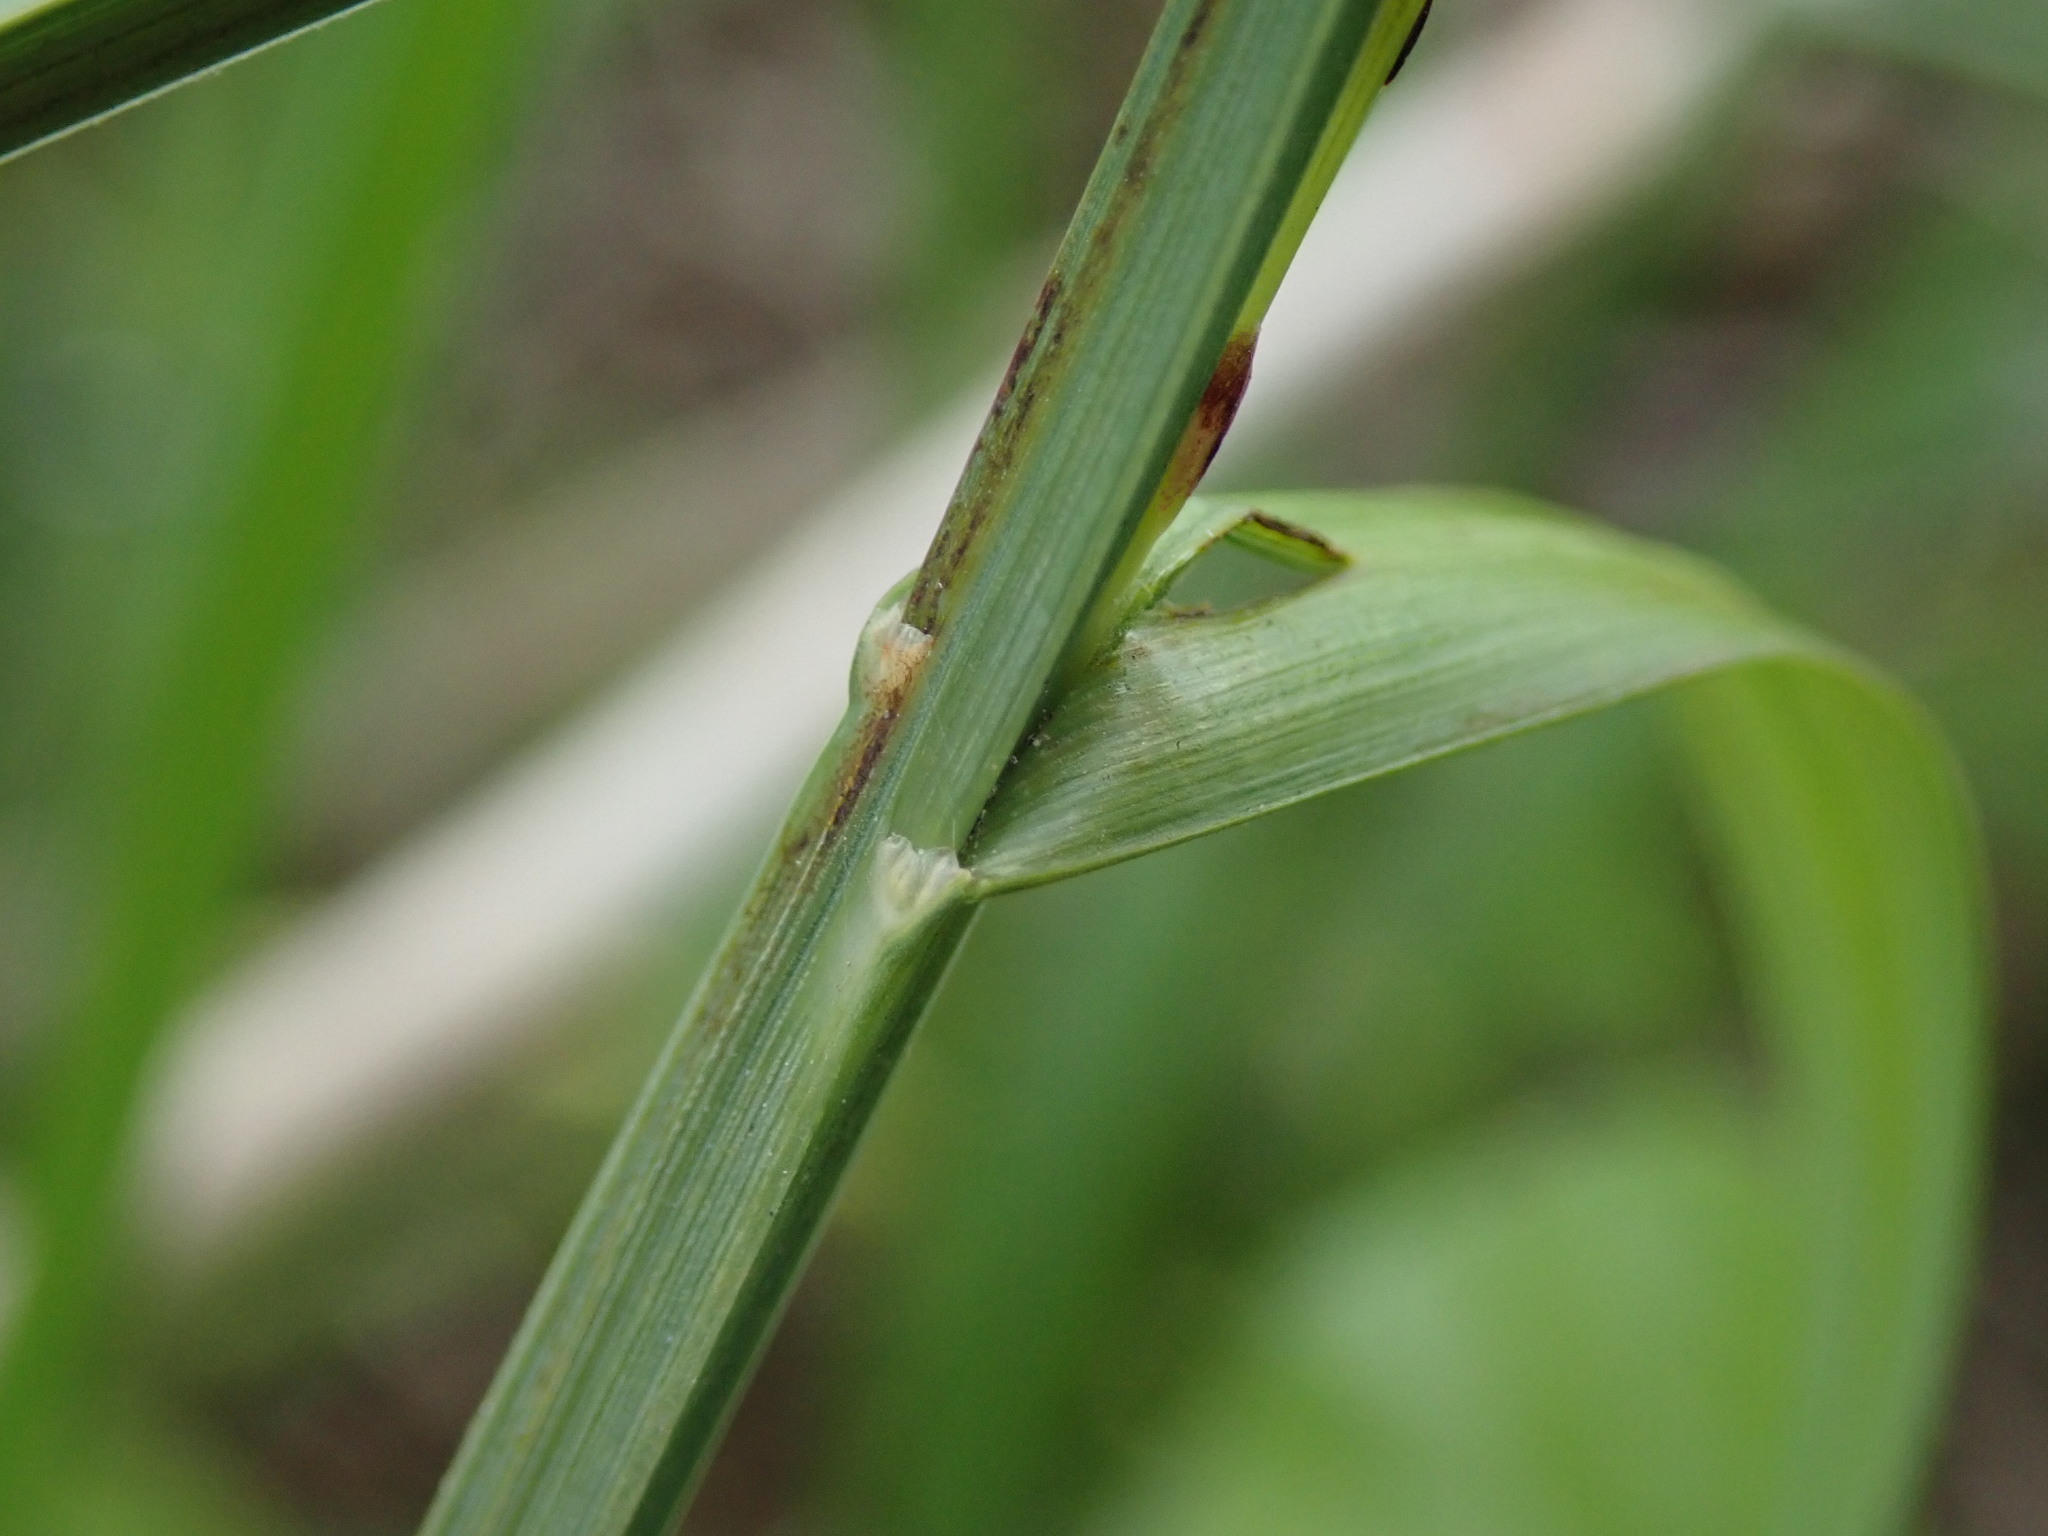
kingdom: Plantae
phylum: Tracheophyta
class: Liliopsida
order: Poales
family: Cyperaceae
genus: Carex
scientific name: Carex acutiformis
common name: Lesser pond-sedge
